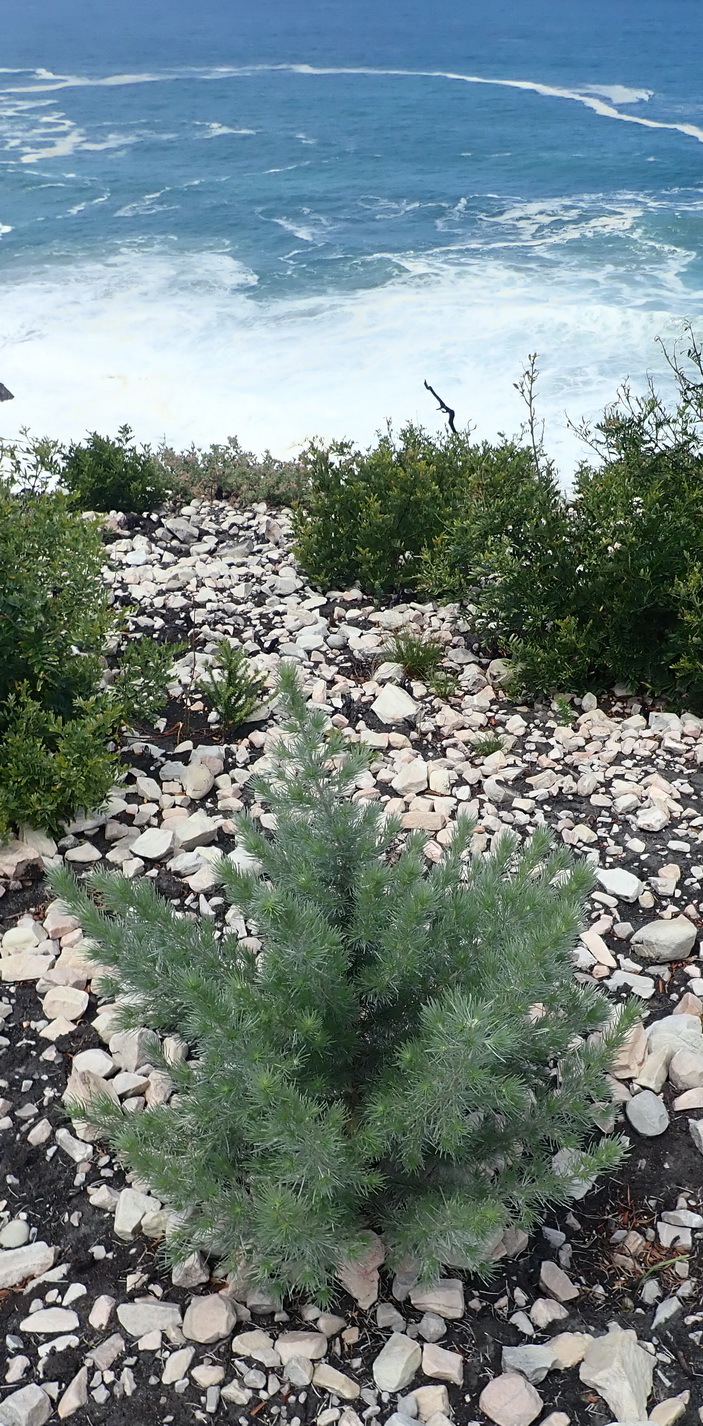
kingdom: Plantae
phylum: Tracheophyta
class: Magnoliopsida
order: Fabales
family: Fabaceae
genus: Aspalathus
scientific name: Aspalathus florifera
